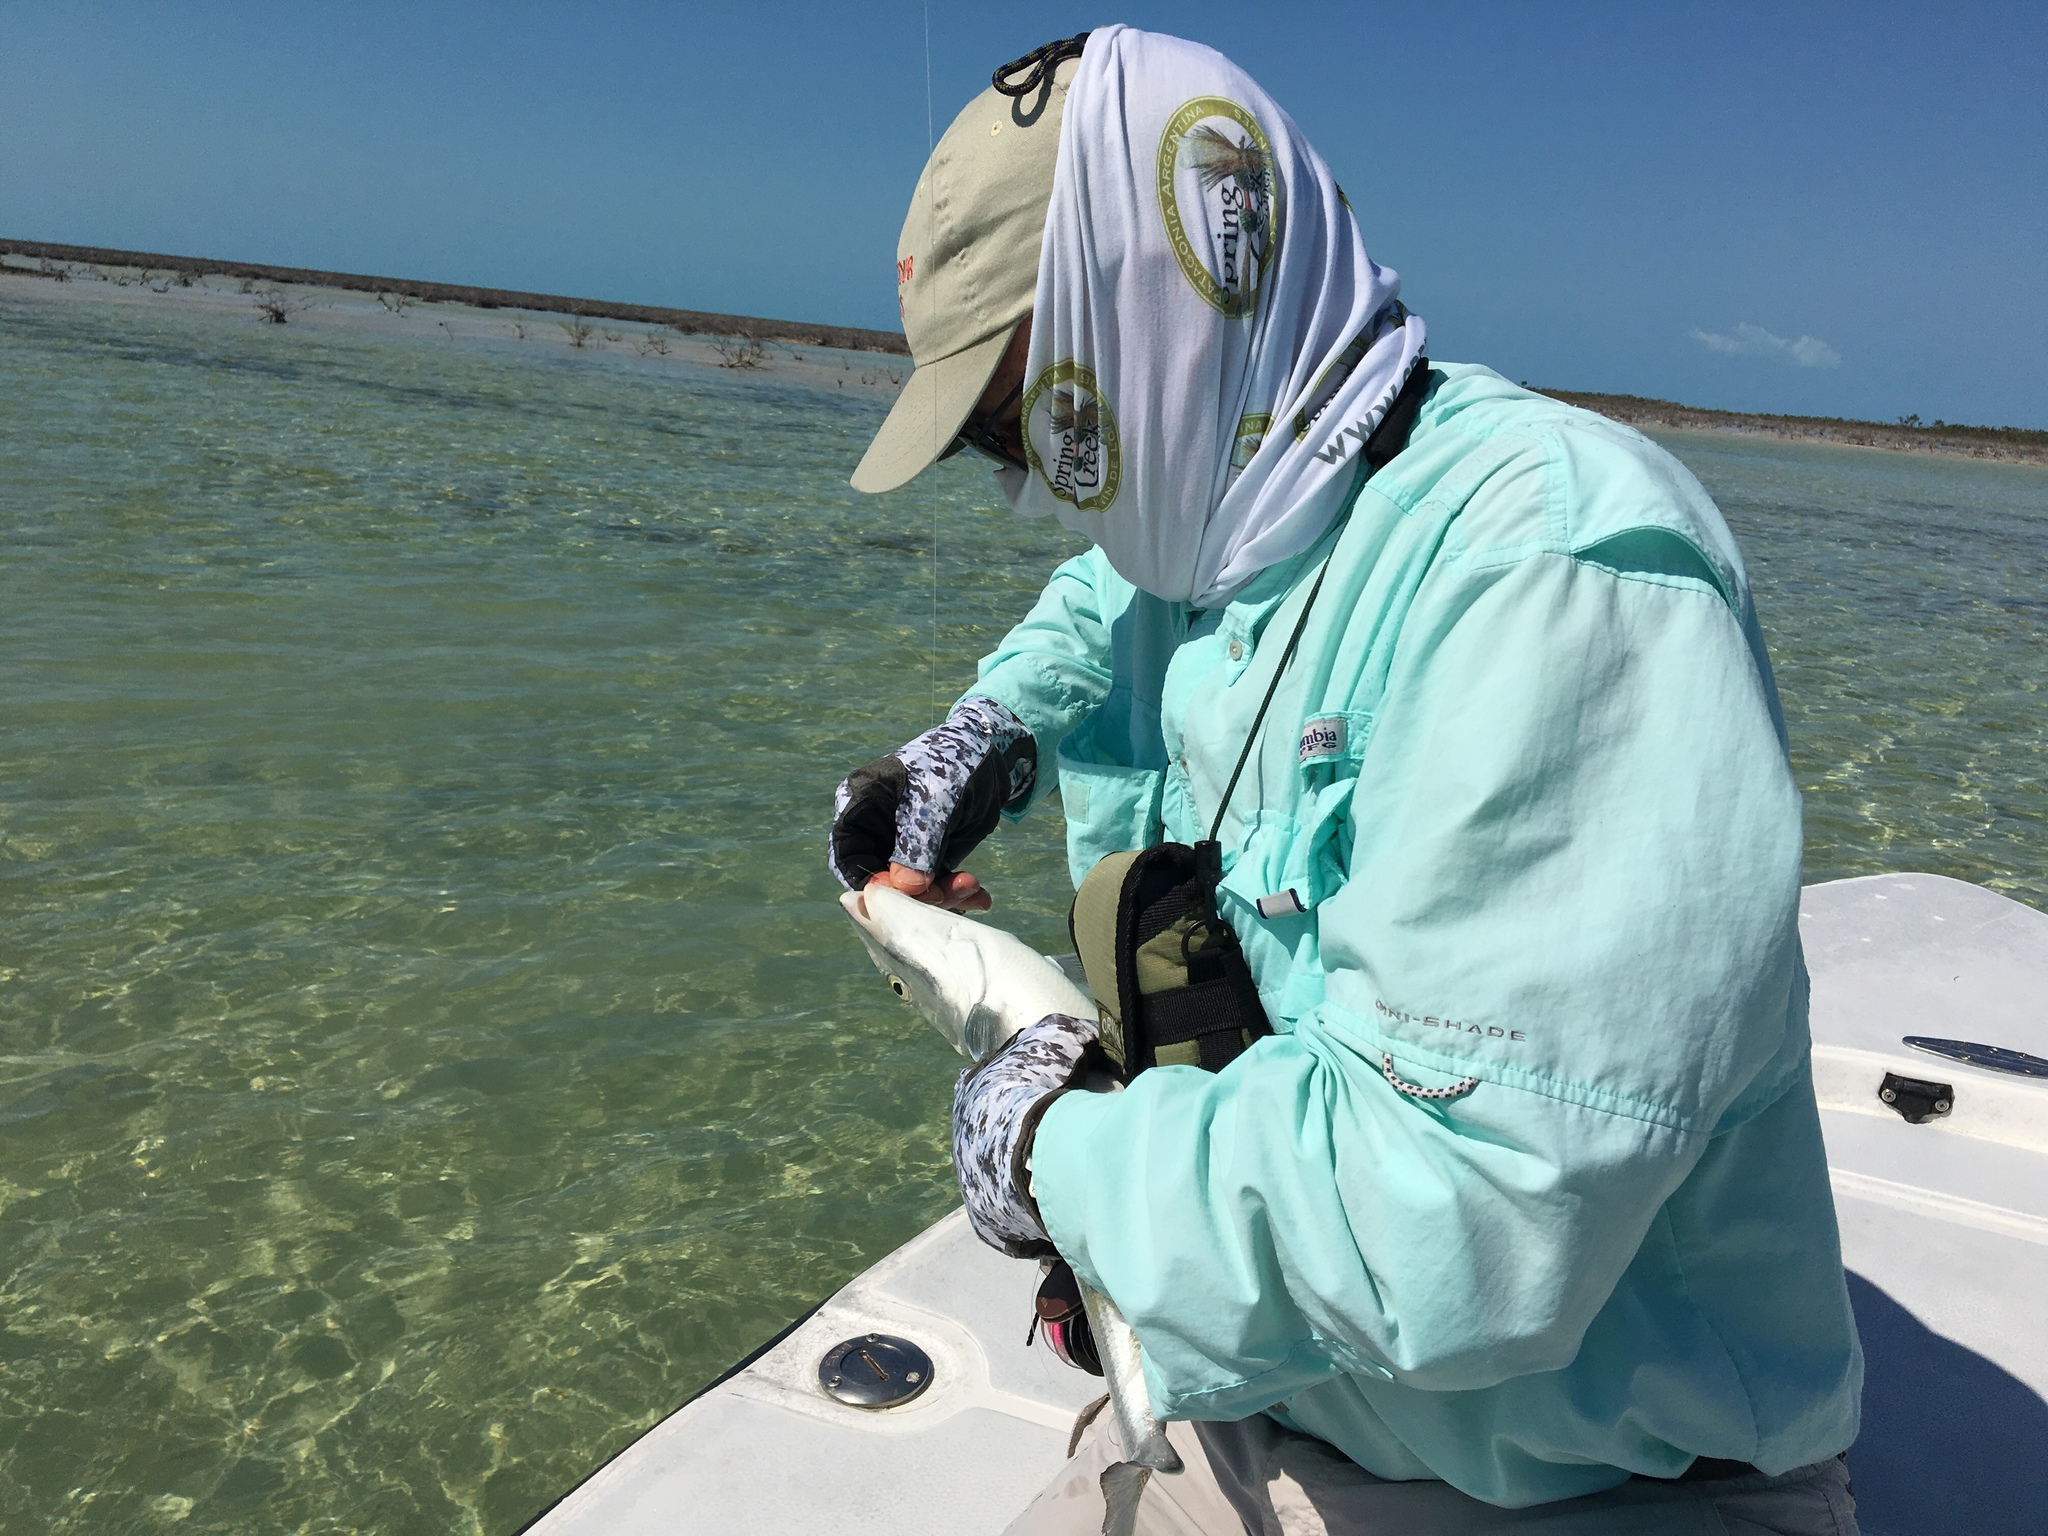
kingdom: Animalia
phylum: Chordata
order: Albuliformes
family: Albulidae
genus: Albula
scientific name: Albula vulpes
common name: Bonefish
